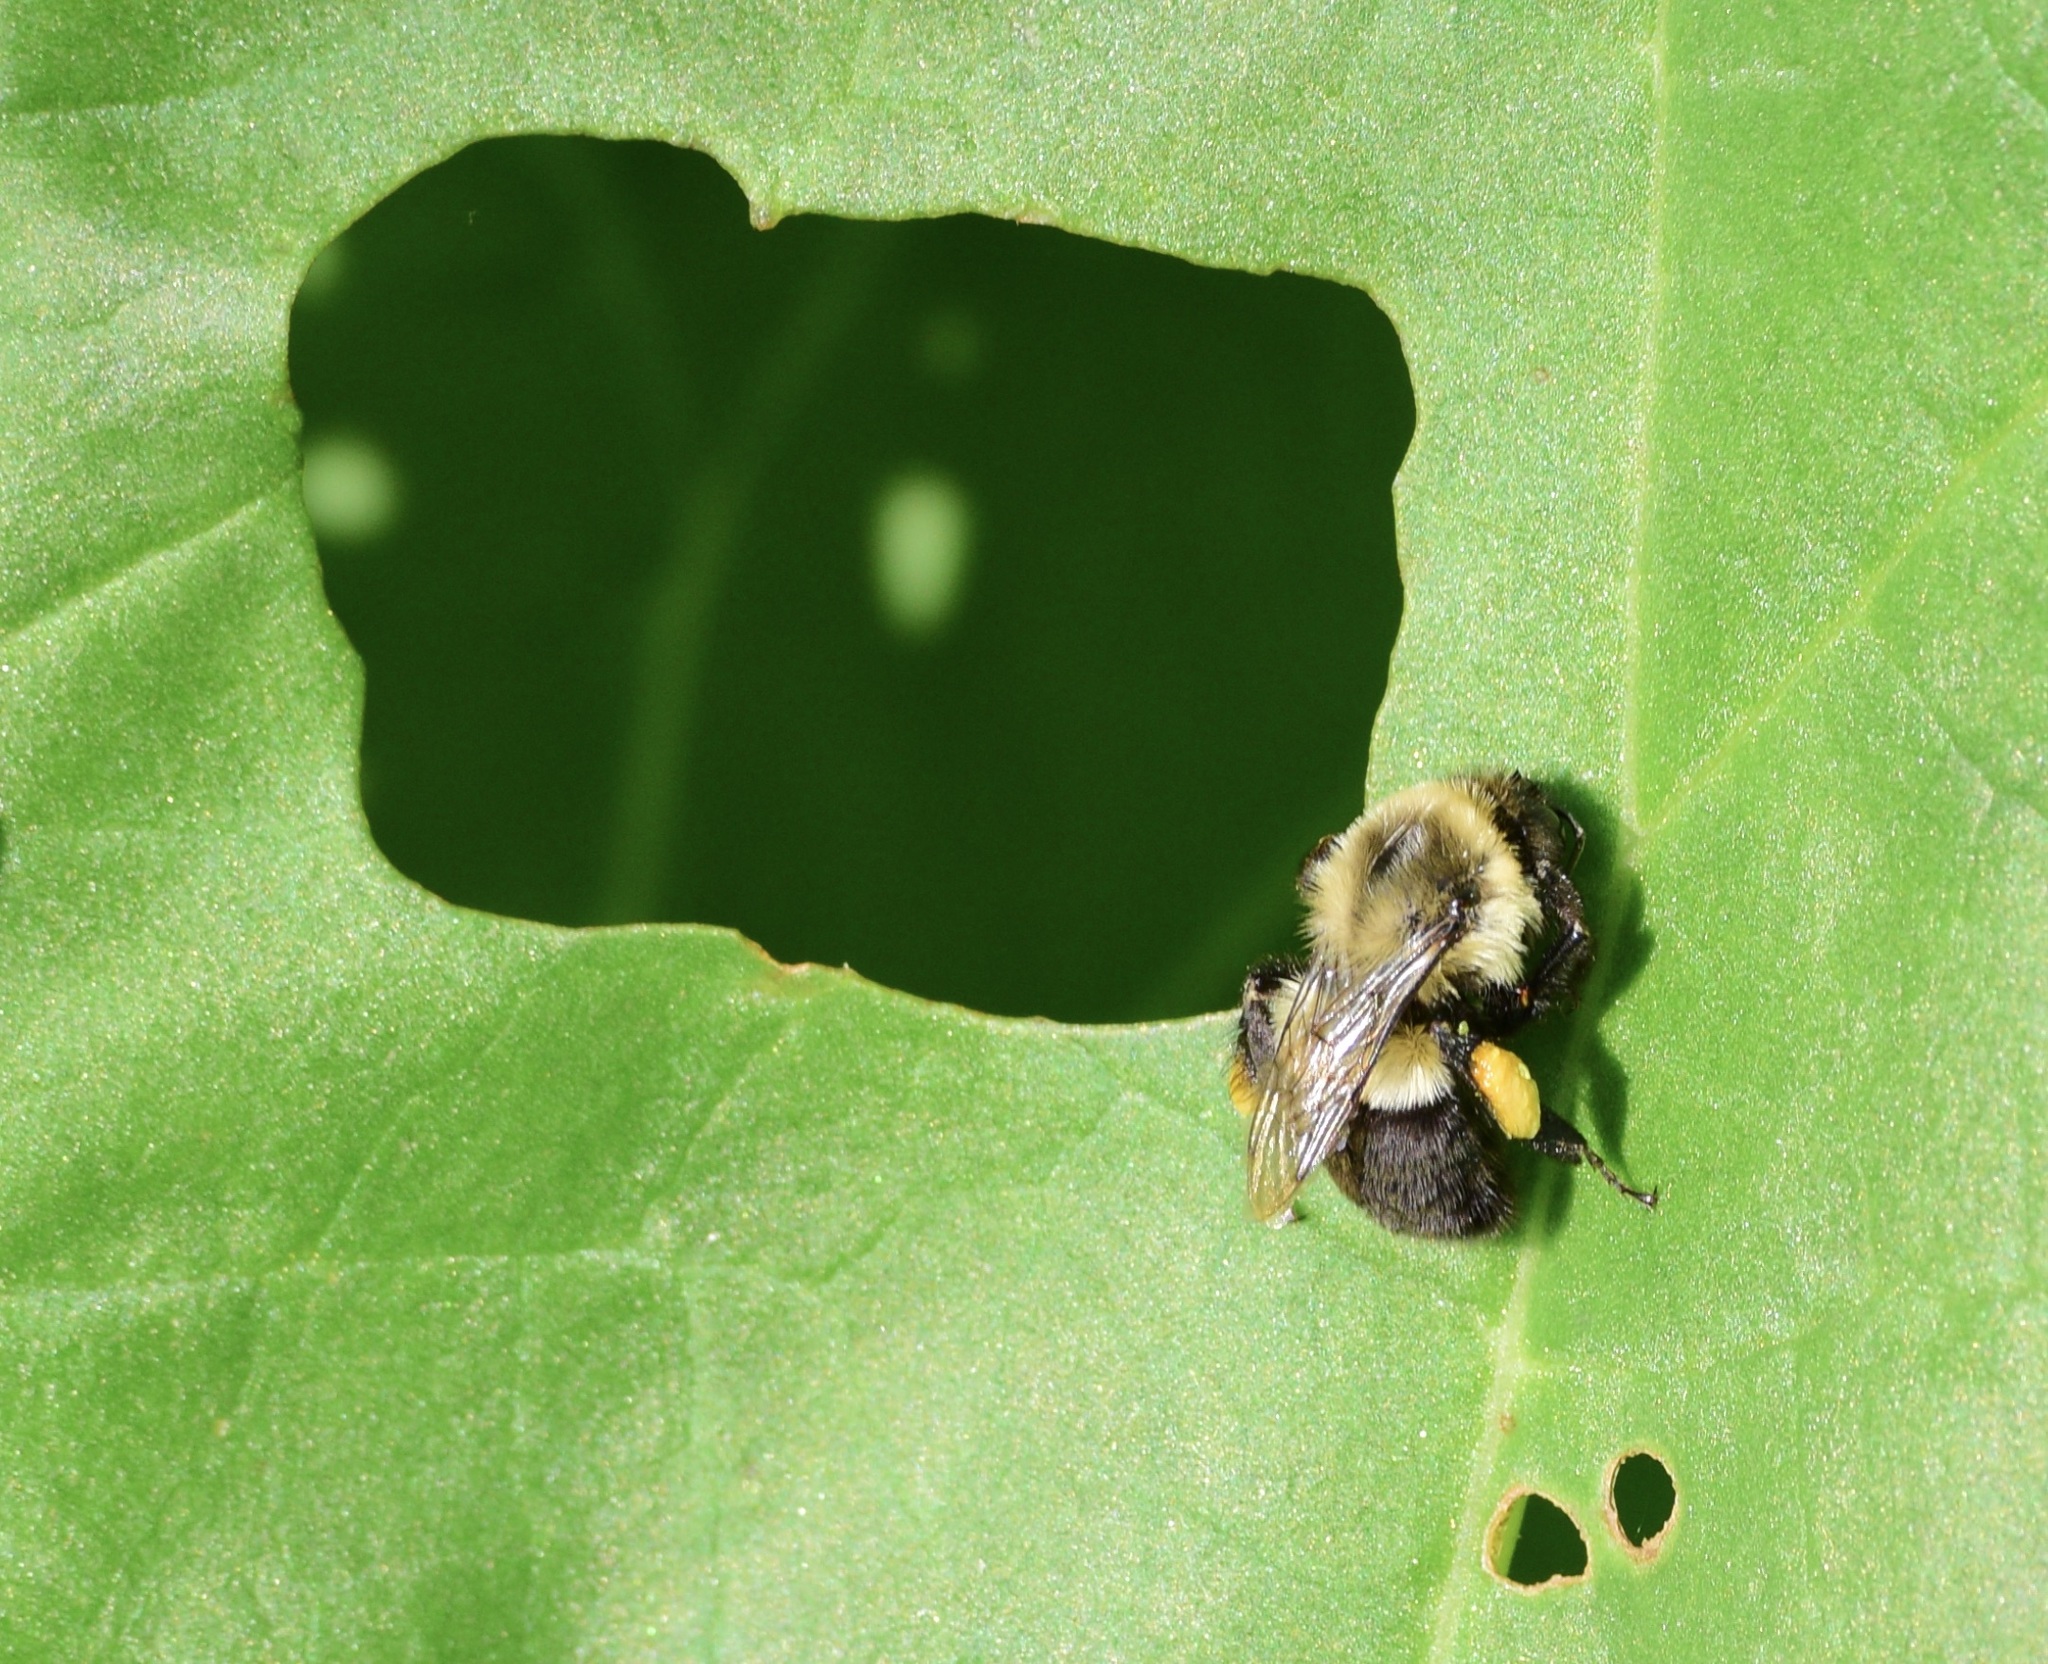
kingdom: Animalia
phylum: Arthropoda
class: Insecta
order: Hymenoptera
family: Apidae
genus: Bombus
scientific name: Bombus impatiens
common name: Common eastern bumble bee
